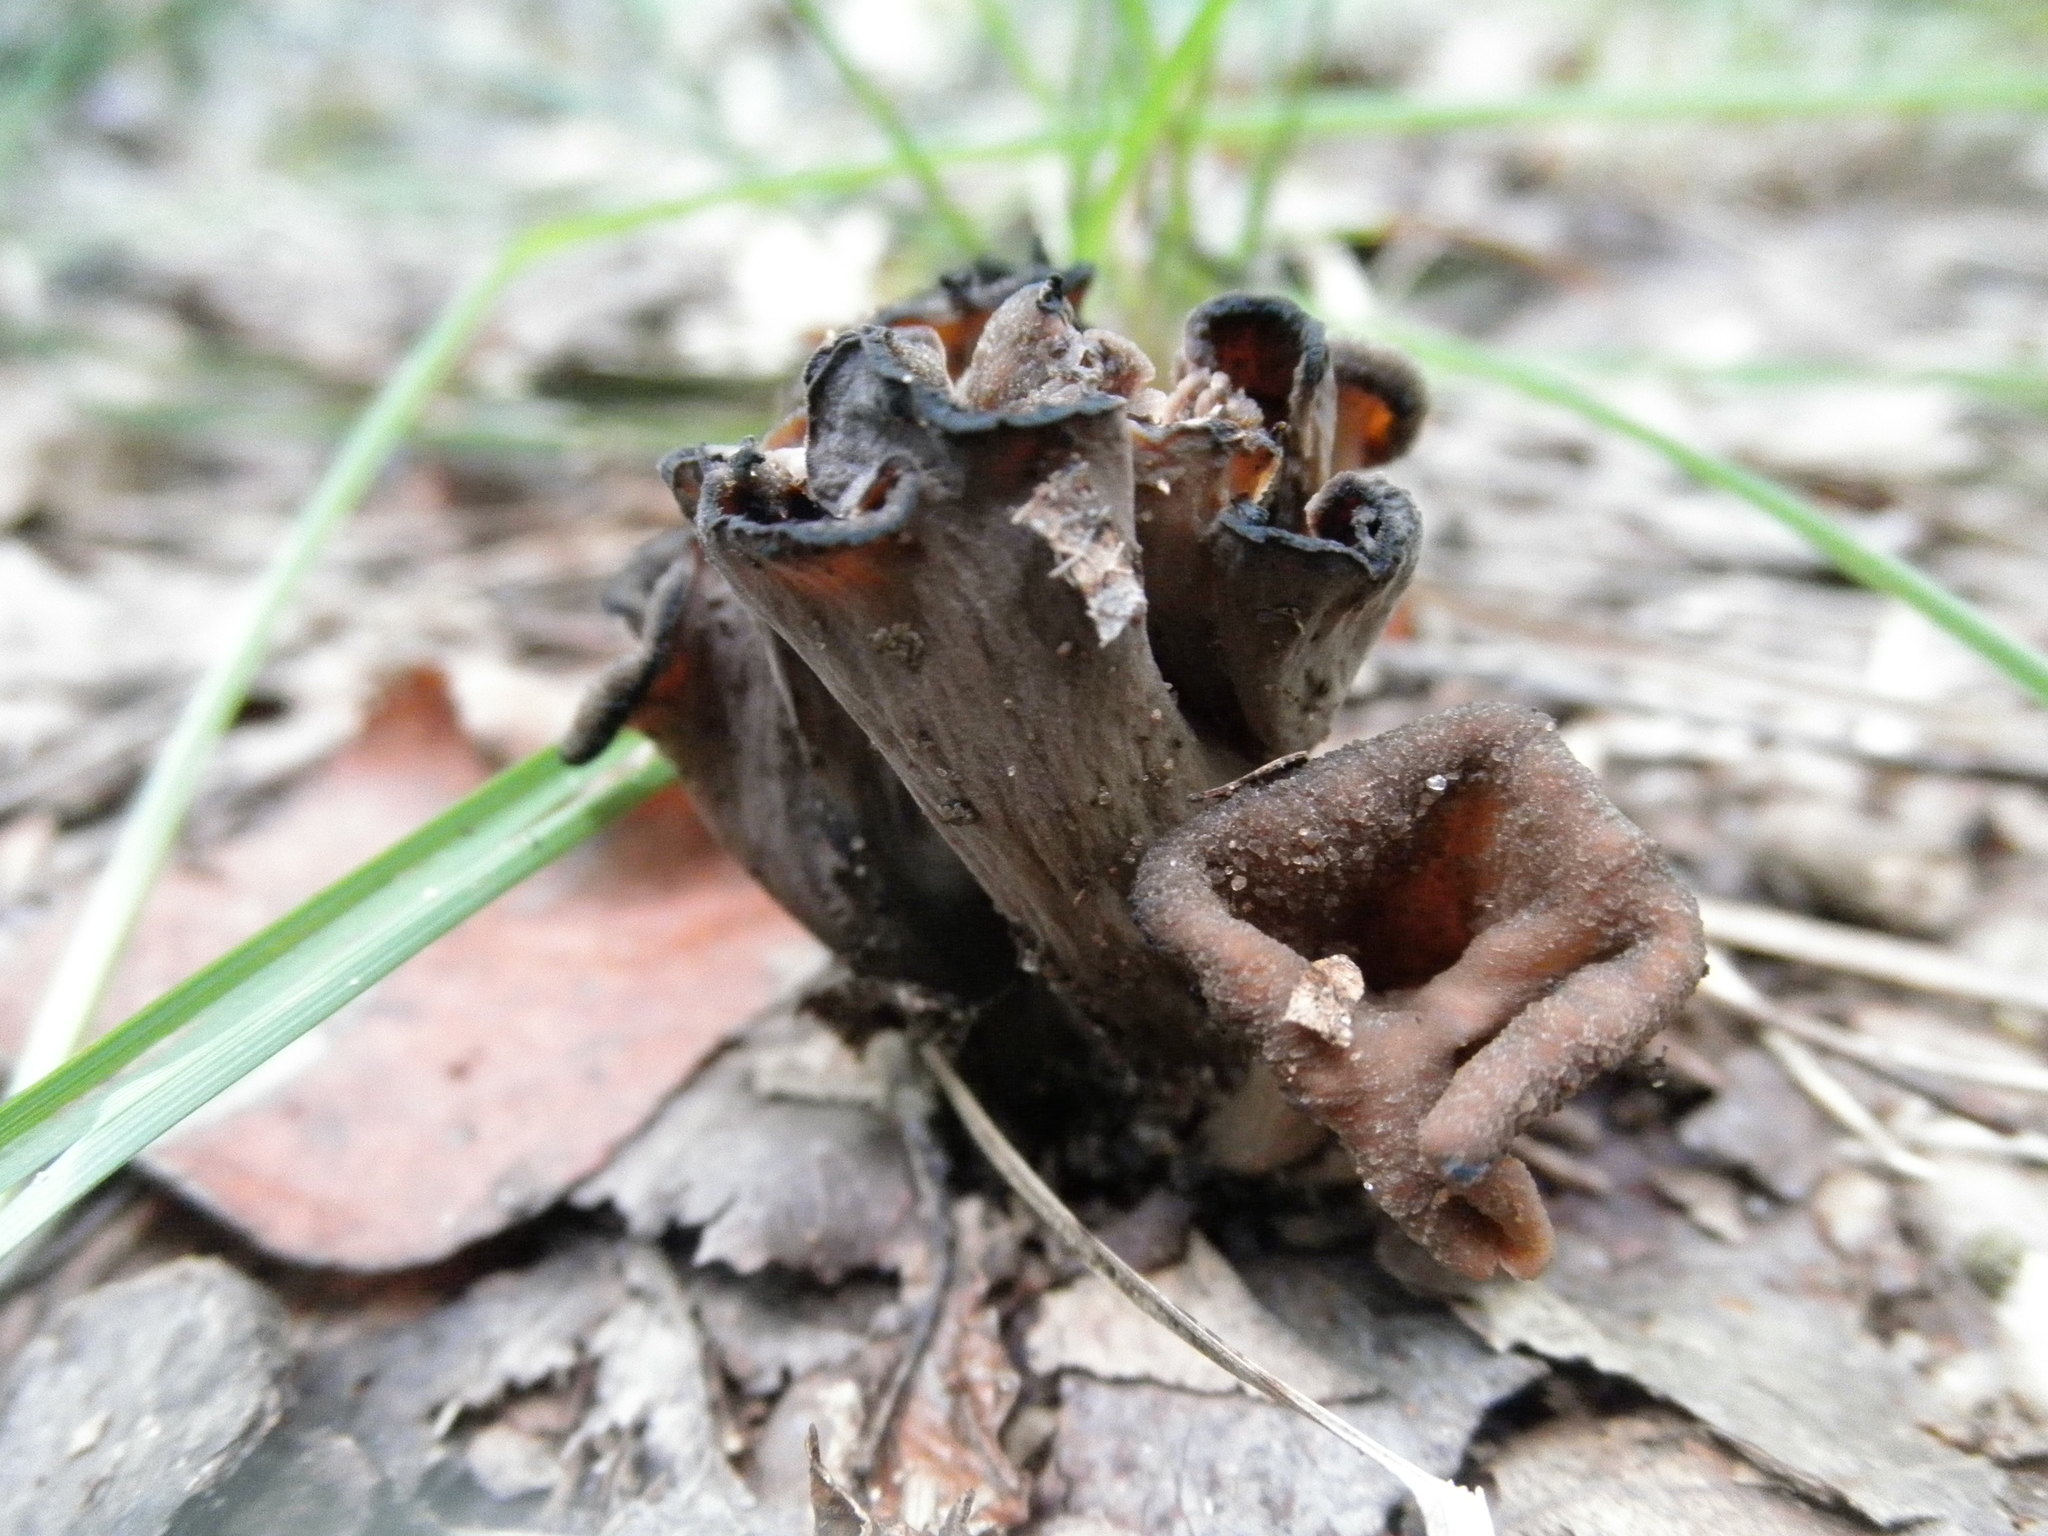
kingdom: Fungi
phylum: Basidiomycota
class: Agaricomycetes
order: Cantharellales
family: Hydnaceae
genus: Craterellus
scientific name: Craterellus cornucopioides
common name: Horn of plenty
